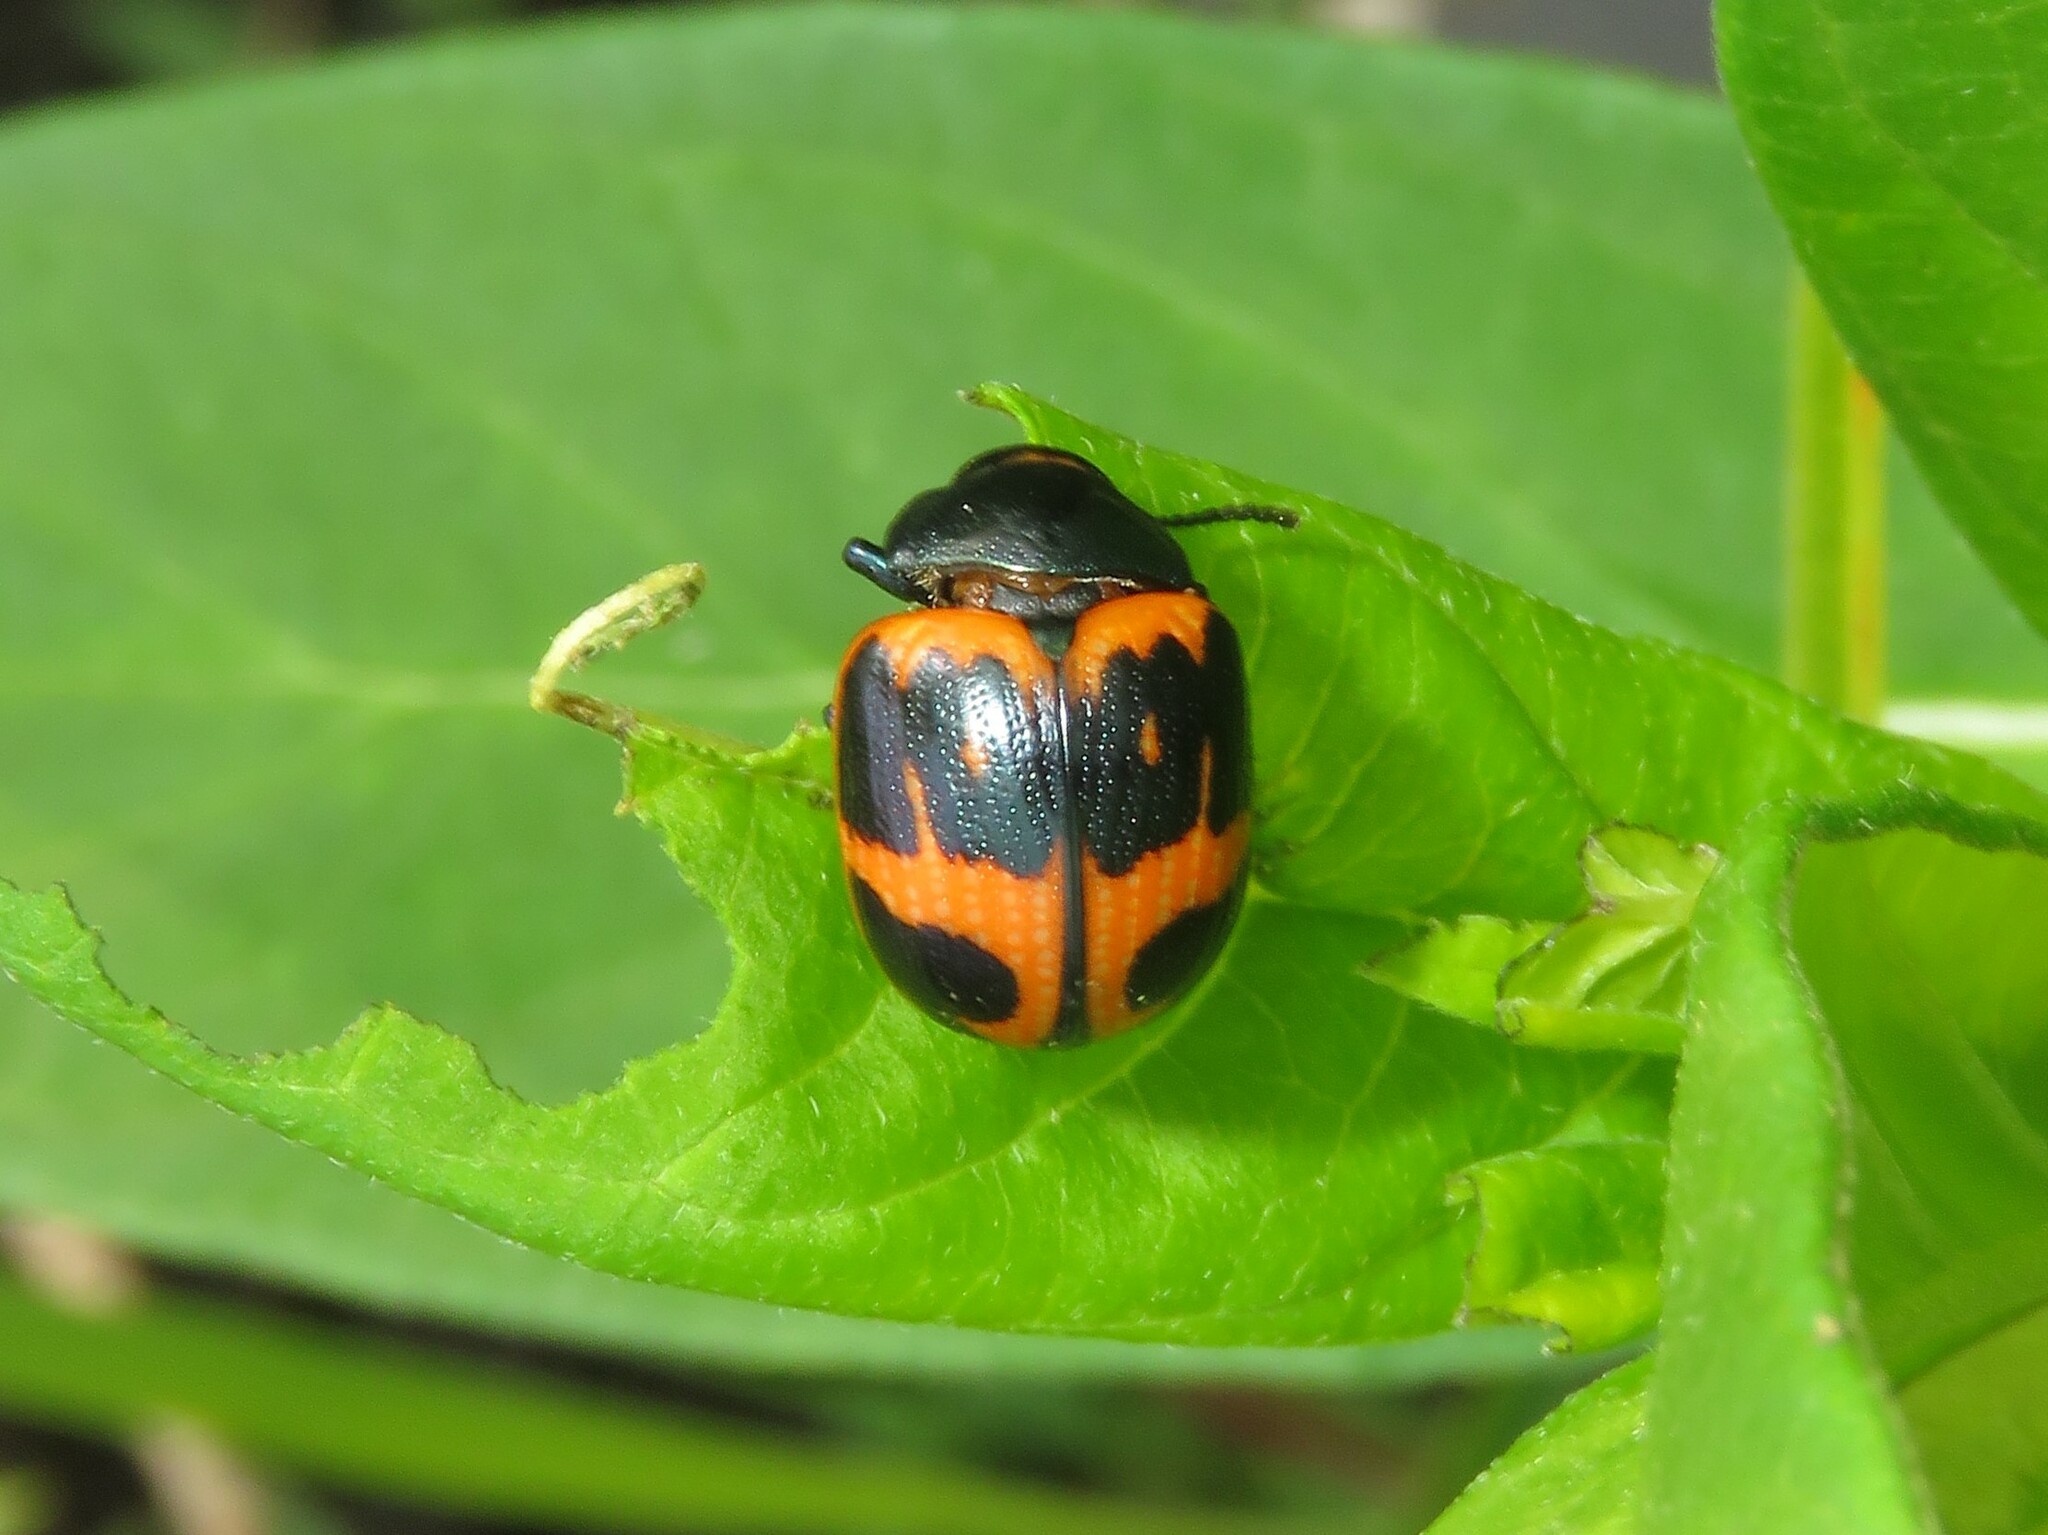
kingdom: Animalia
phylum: Arthropoda
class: Insecta
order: Coleoptera
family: Chrysomelidae
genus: Labidomera
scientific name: Labidomera clivicollis
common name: Swamp milkweed leaf beetle
